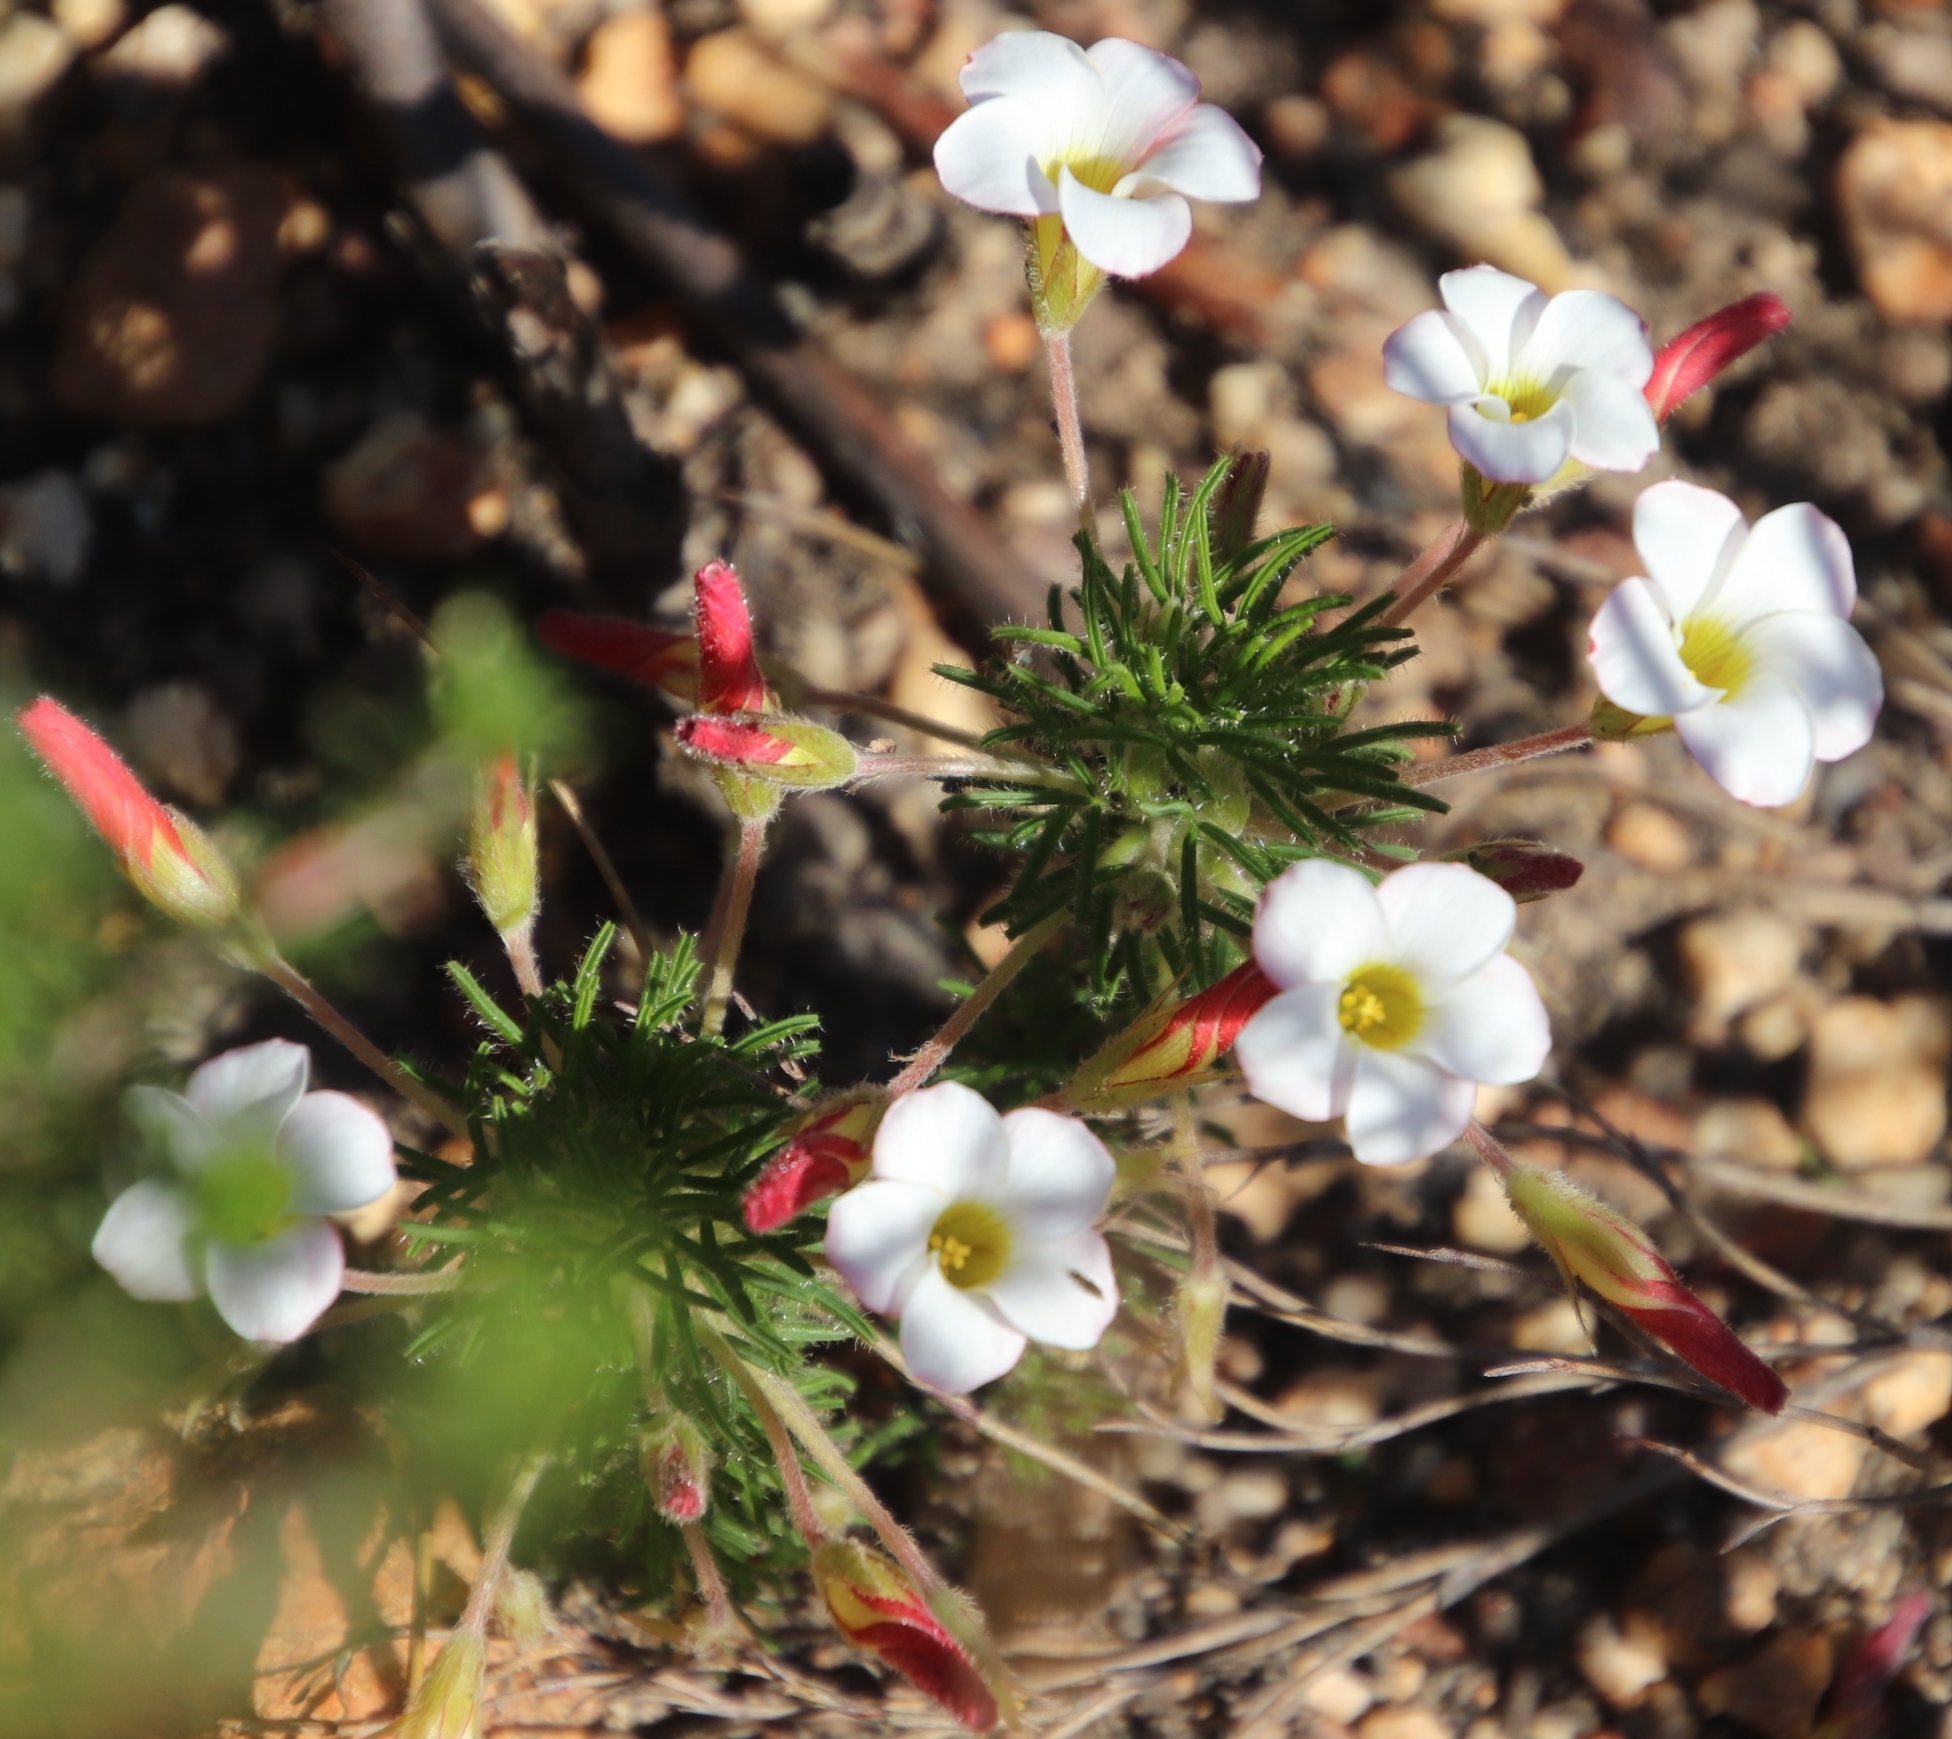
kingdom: Plantae
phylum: Tracheophyta
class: Magnoliopsida
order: Oxalidales
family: Oxalidaceae
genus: Oxalis
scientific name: Oxalis tenuifolia
